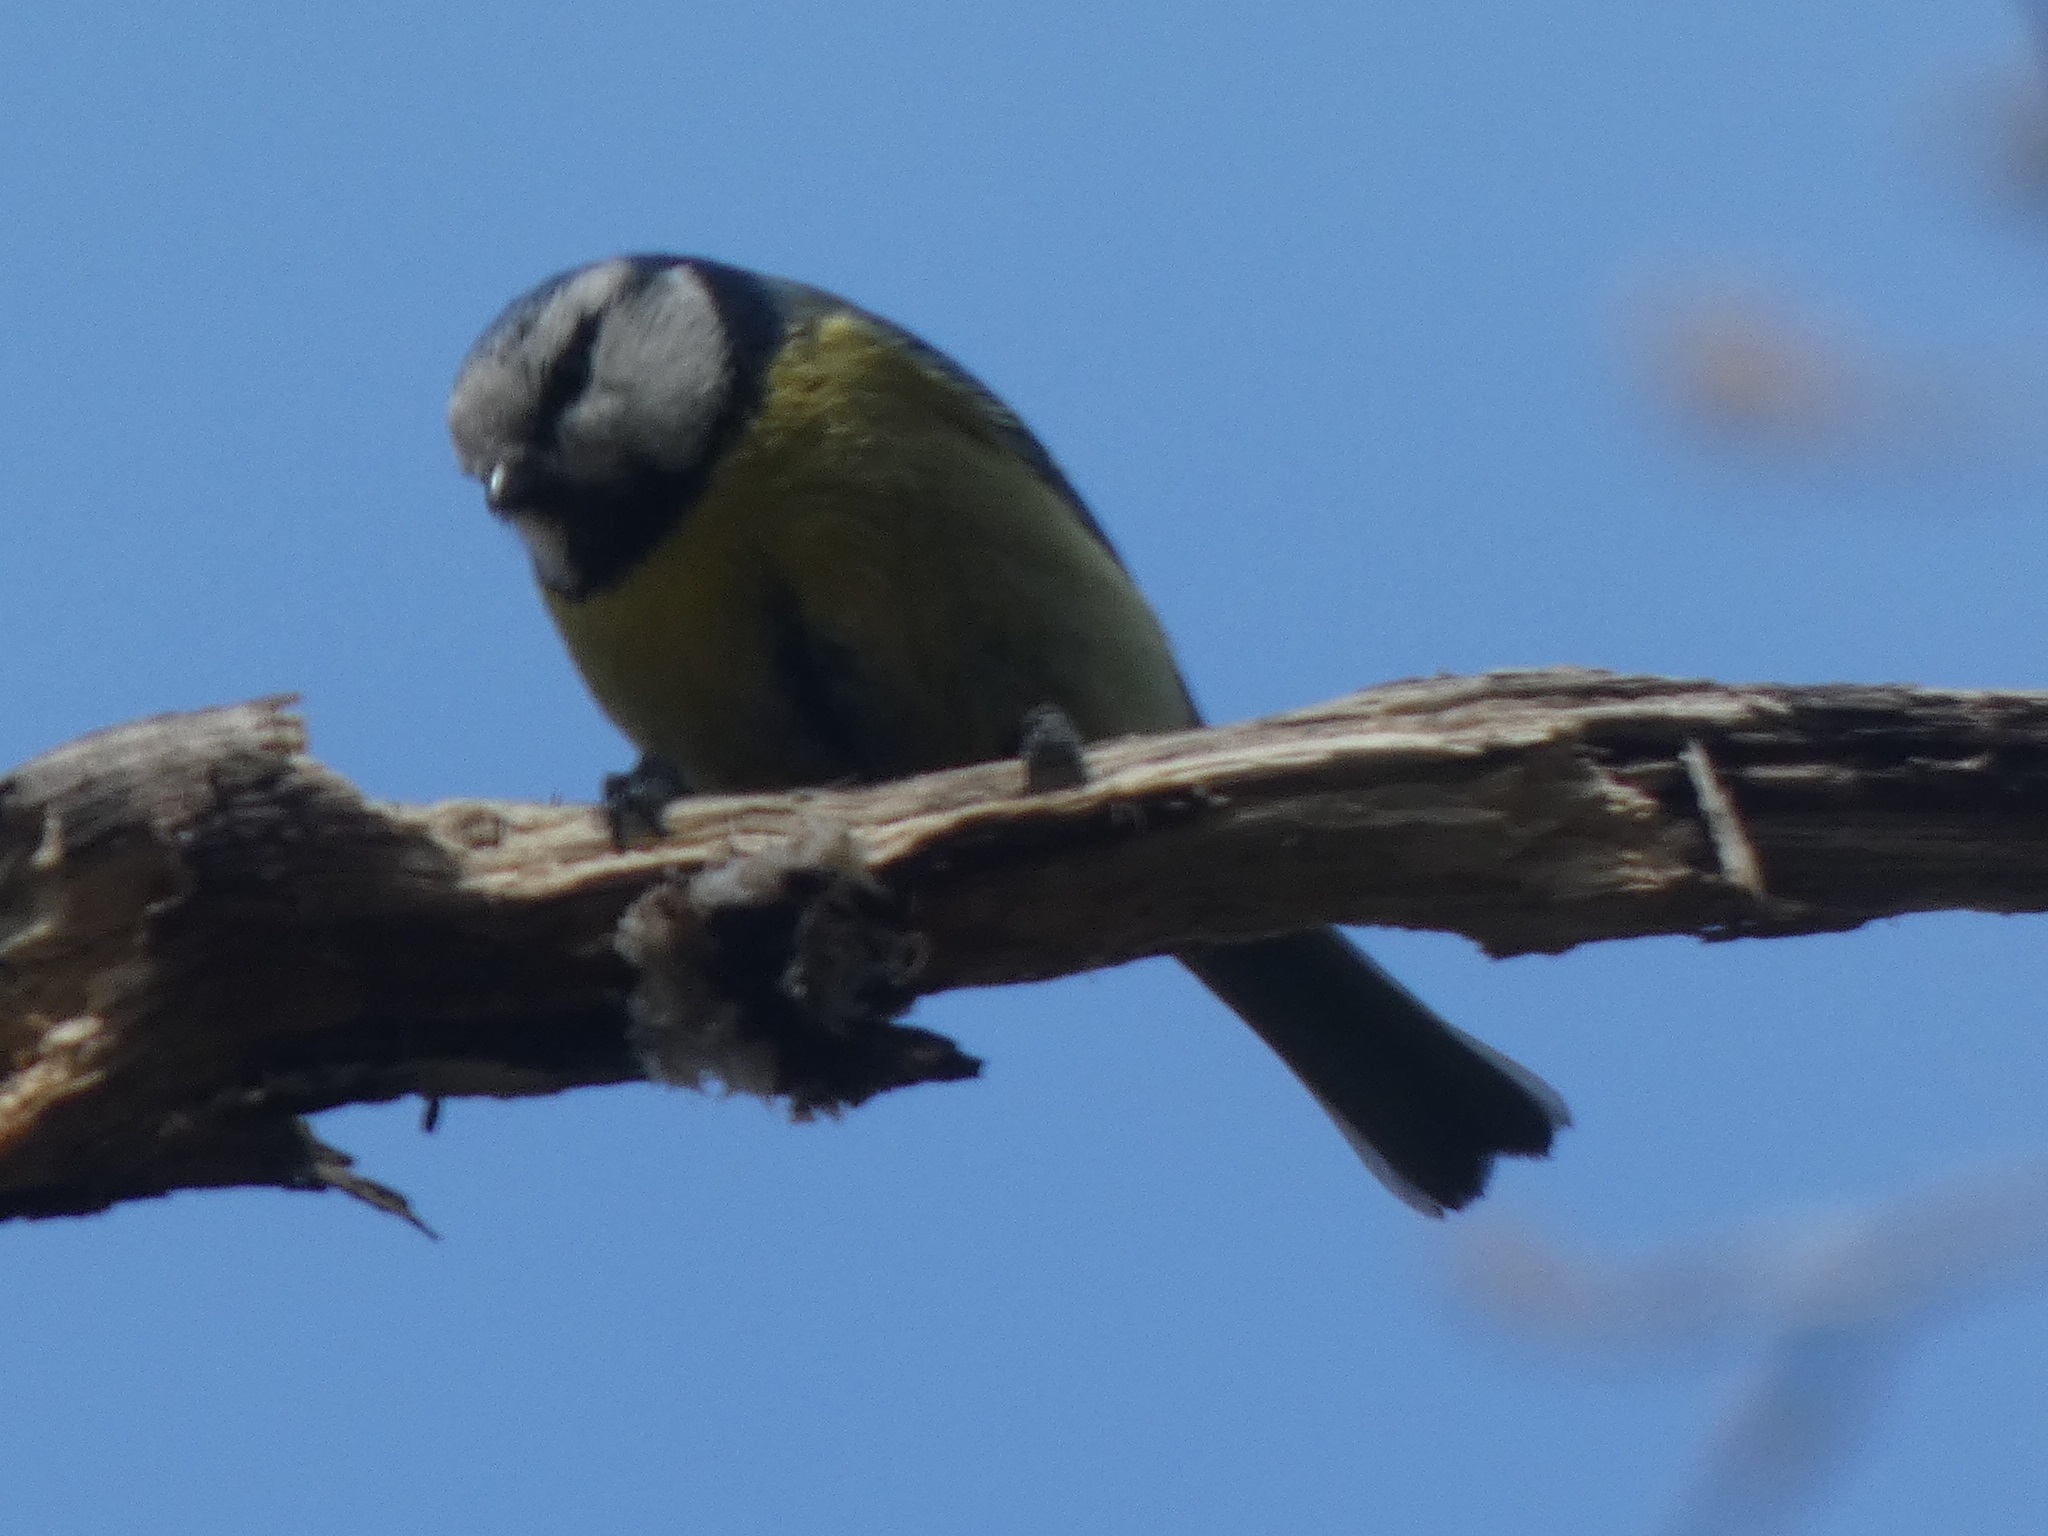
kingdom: Animalia
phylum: Chordata
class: Aves
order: Passeriformes
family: Paridae
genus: Cyanistes
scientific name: Cyanistes caeruleus
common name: Eurasian blue tit
